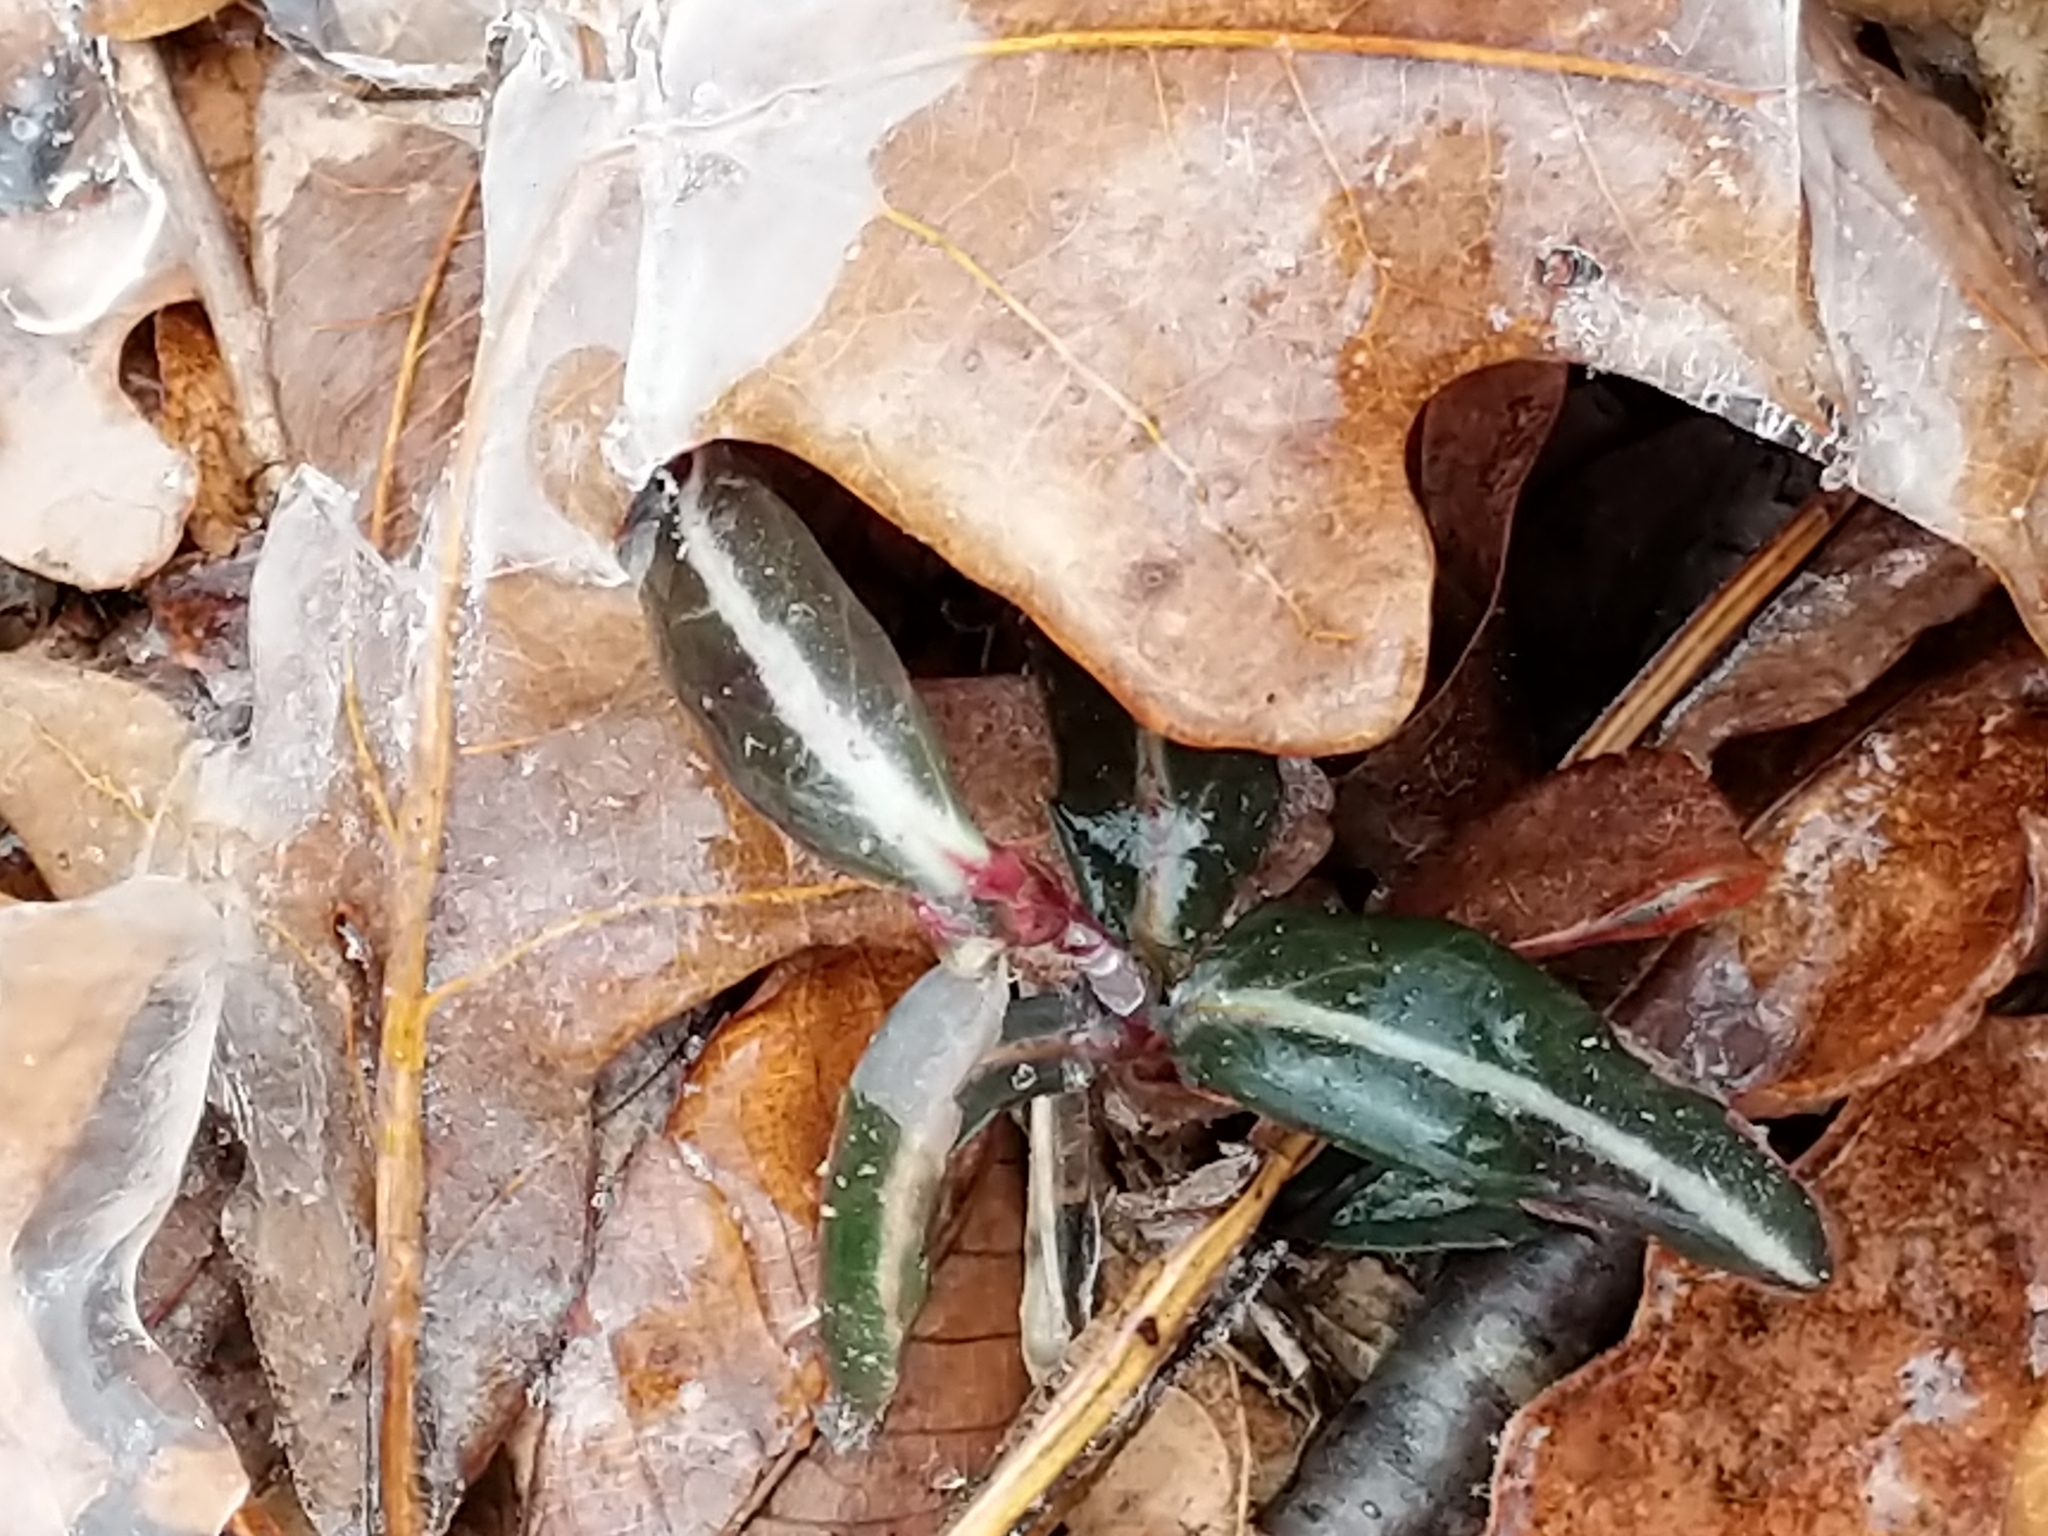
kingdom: Plantae
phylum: Tracheophyta
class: Magnoliopsida
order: Ericales
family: Ericaceae
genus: Chimaphila
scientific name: Chimaphila maculata
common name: Spotted pipsissewa
